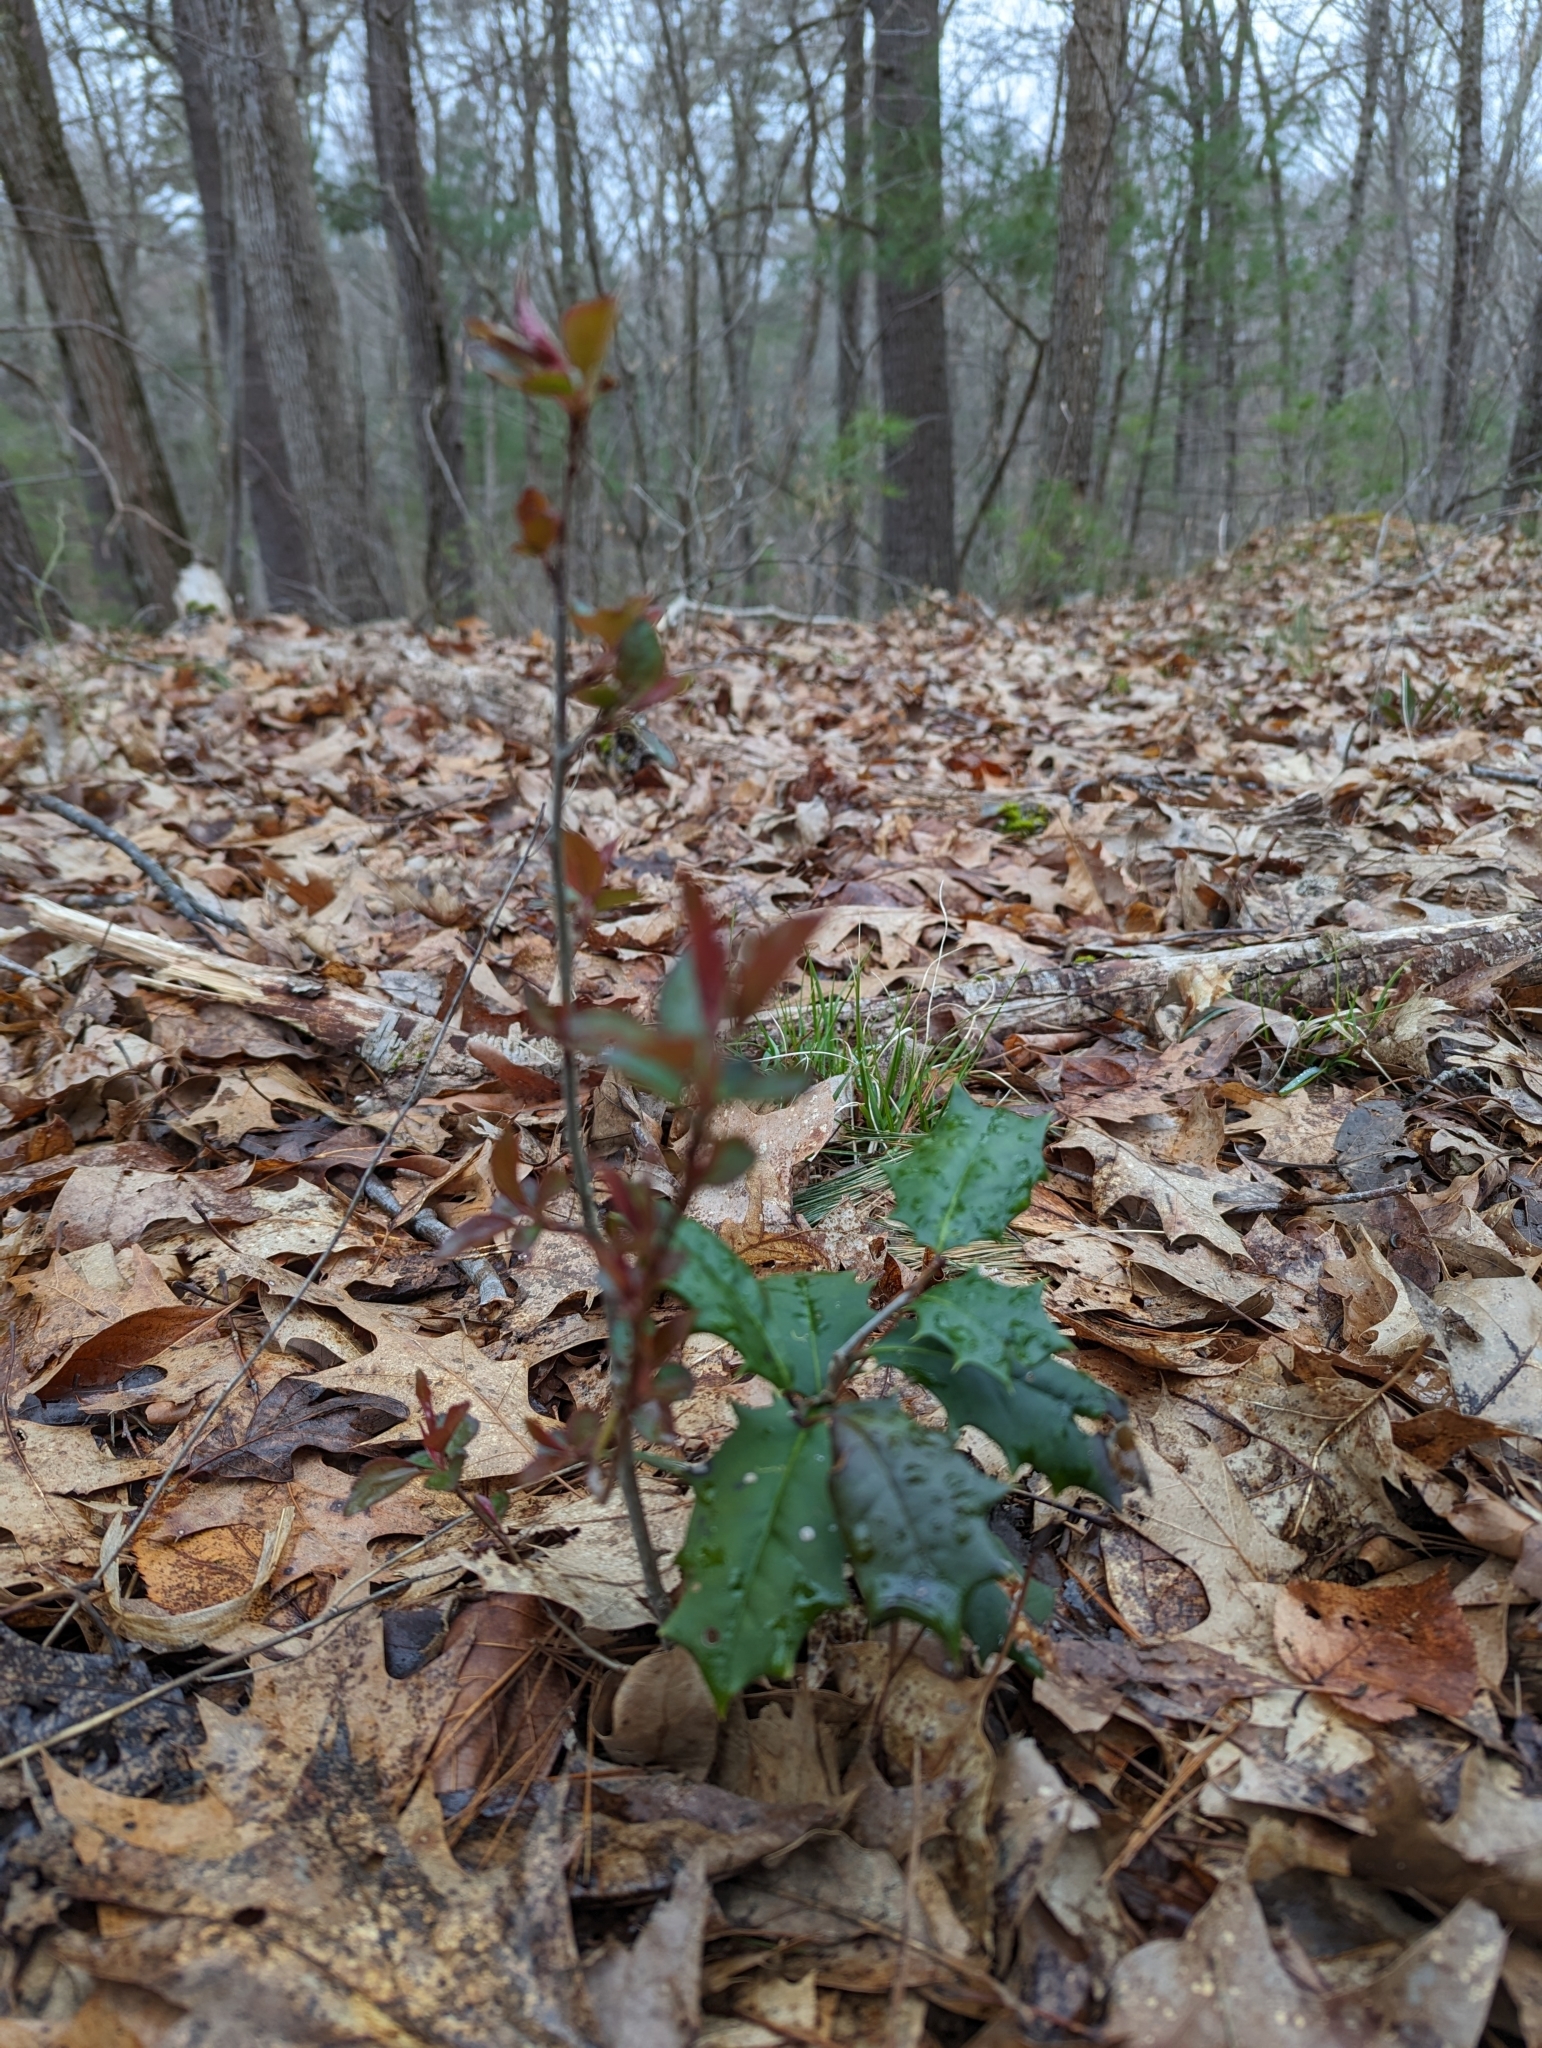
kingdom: Plantae
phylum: Tracheophyta
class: Magnoliopsida
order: Aquifoliales
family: Aquifoliaceae
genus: Ilex
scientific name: Ilex opaca
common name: American holly
